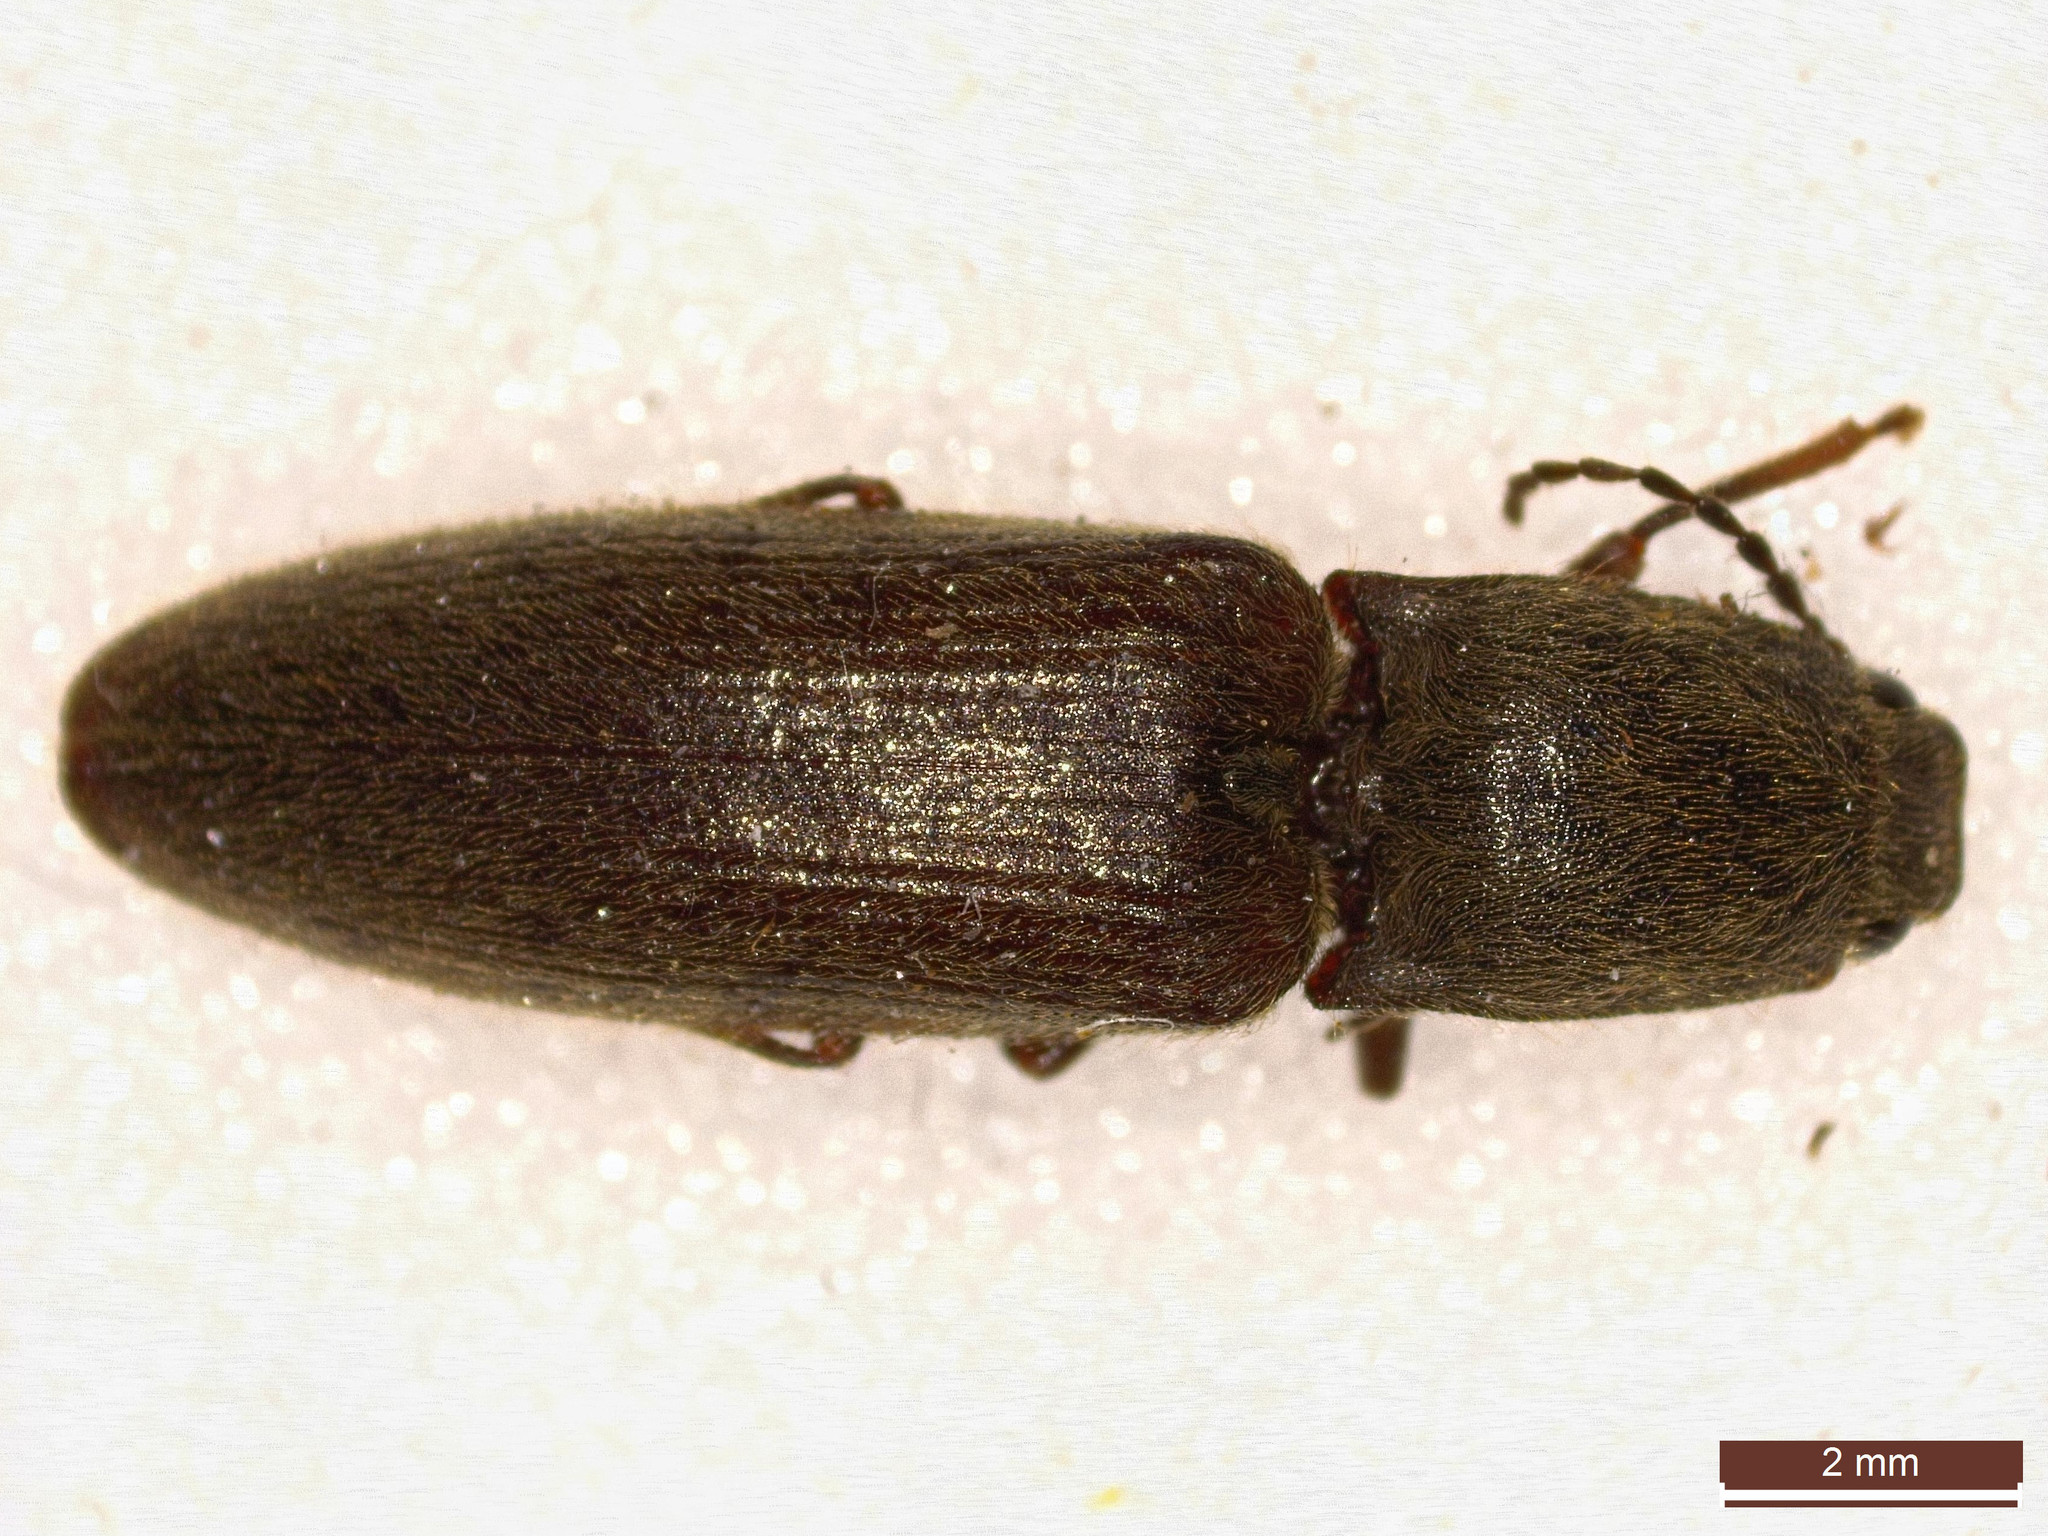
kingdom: Animalia
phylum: Arthropoda
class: Insecta
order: Coleoptera
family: Elateridae
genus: Athous
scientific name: Athous haemorrhoidalis
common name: Red-brown click beetle
